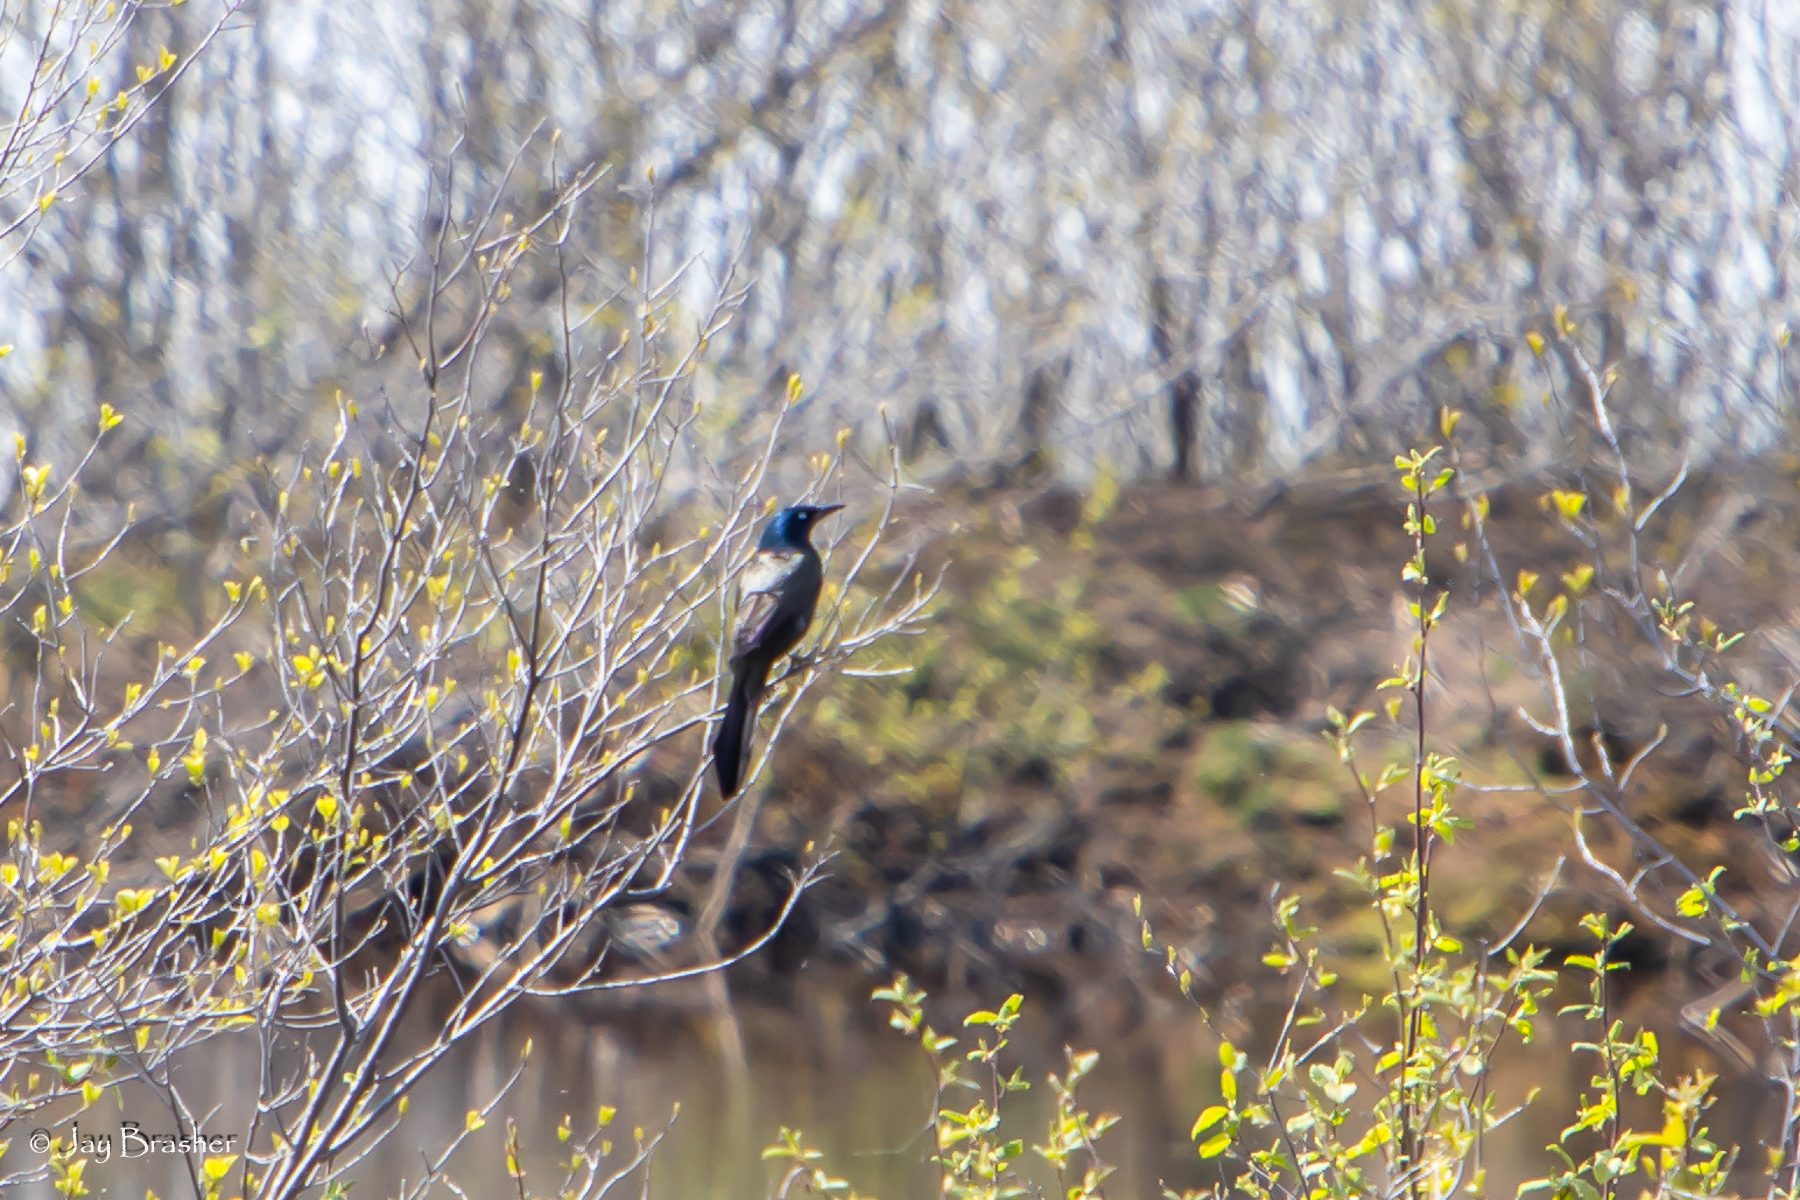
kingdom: Animalia
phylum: Chordata
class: Aves
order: Passeriformes
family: Icteridae
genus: Quiscalus
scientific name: Quiscalus quiscula
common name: Common grackle
